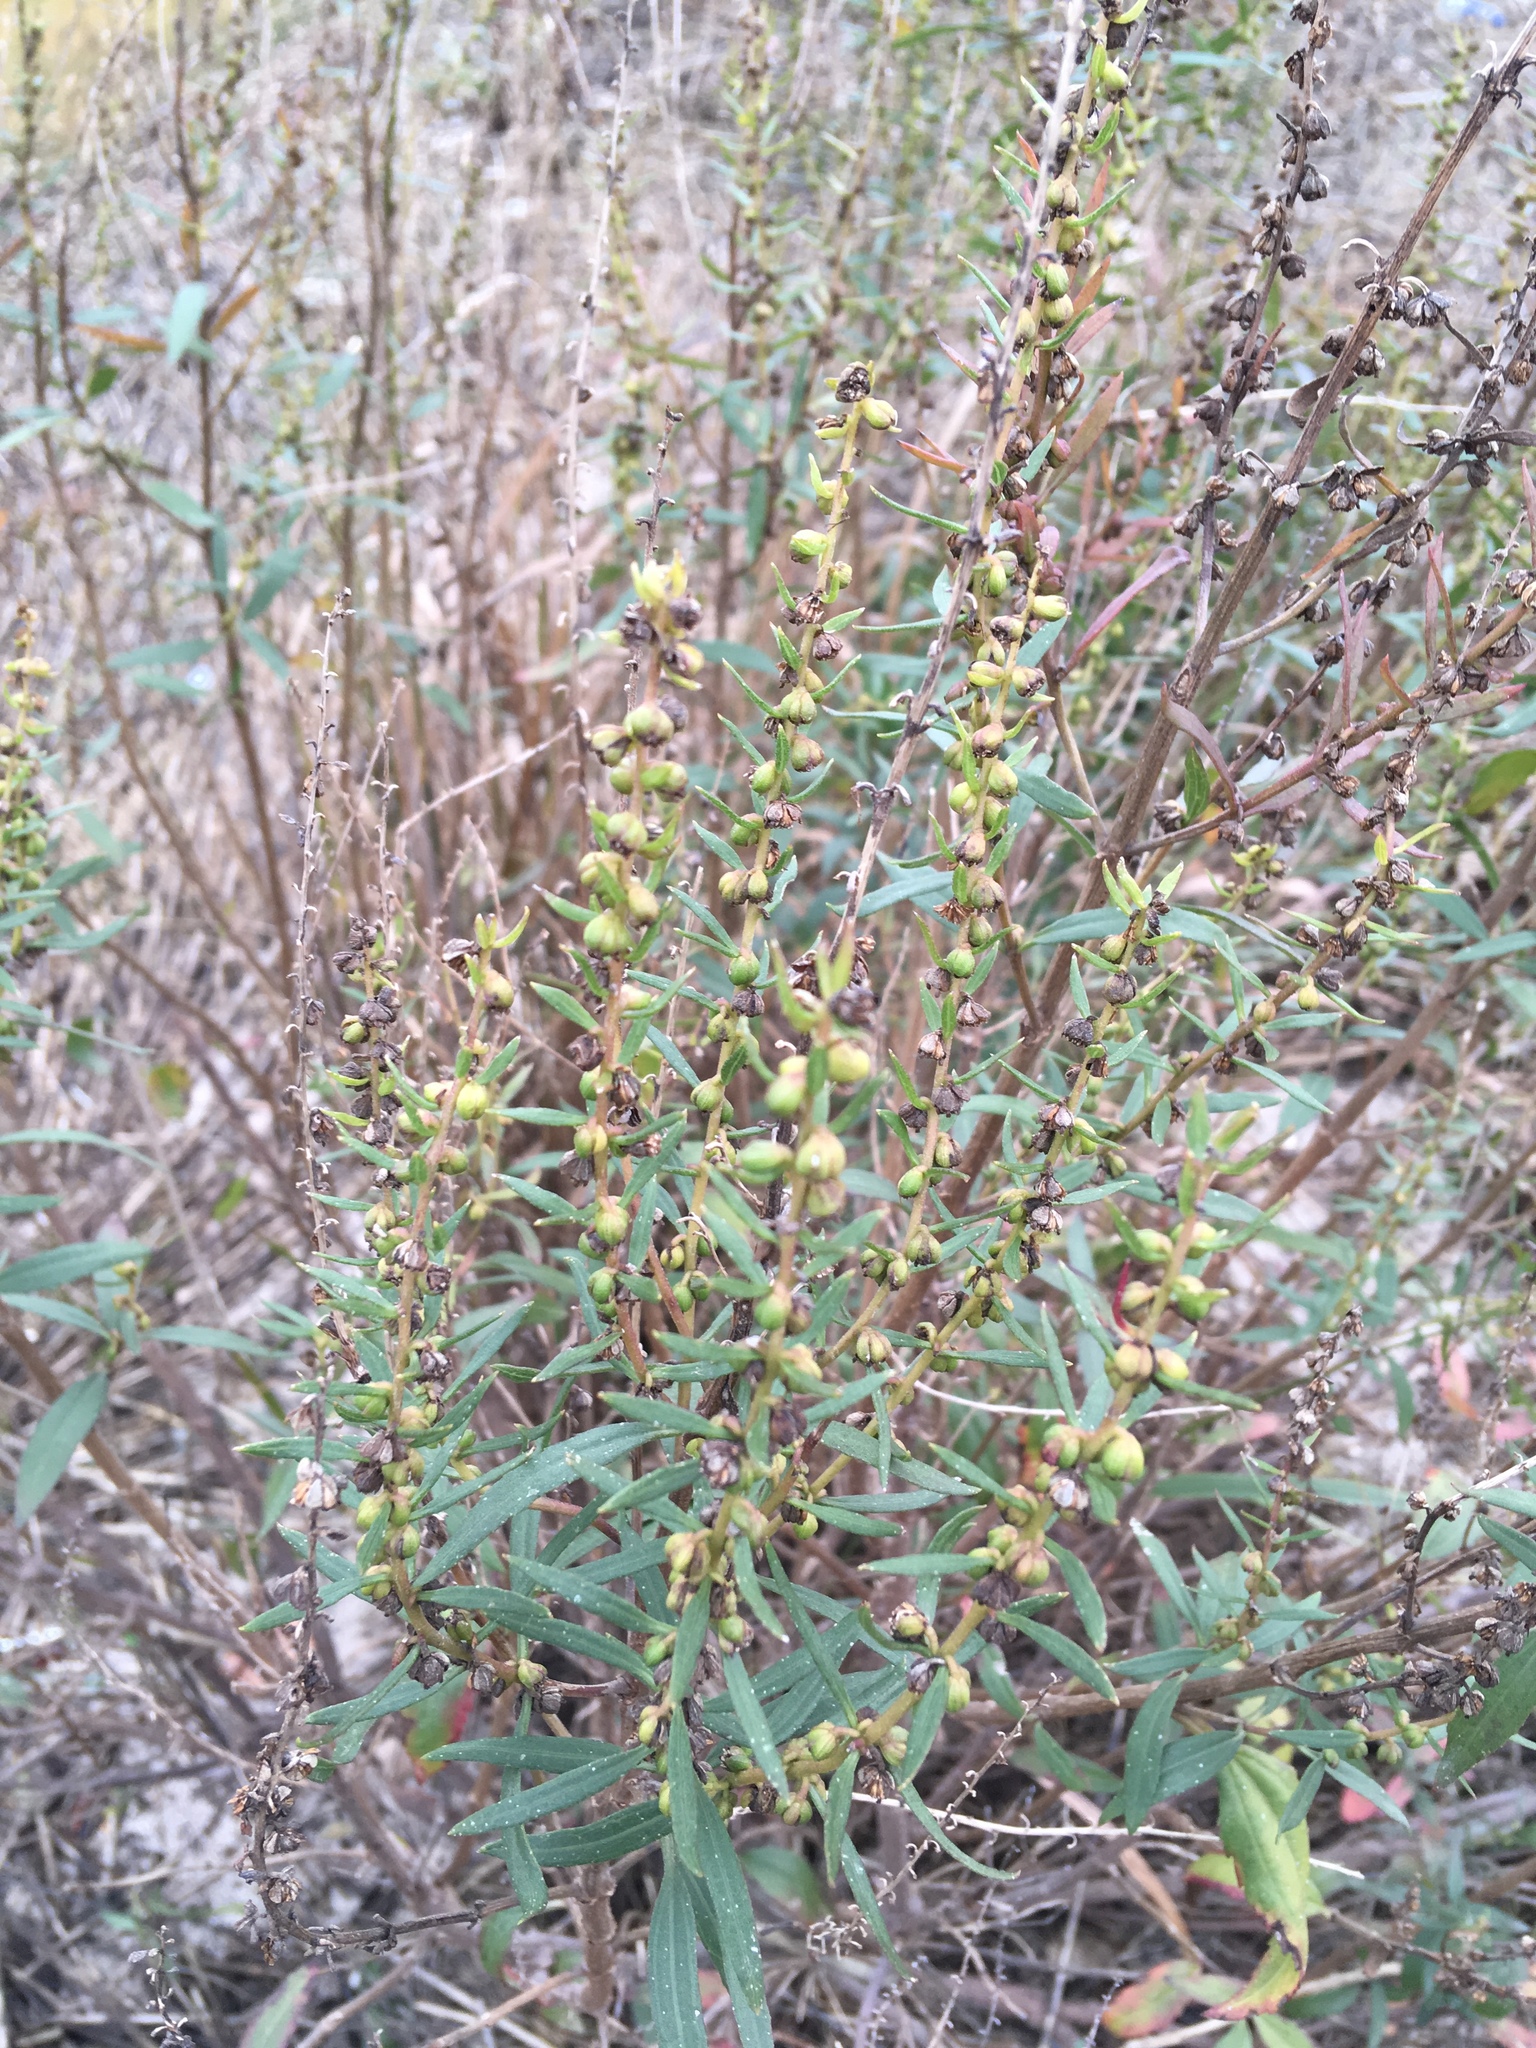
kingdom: Plantae
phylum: Tracheophyta
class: Magnoliopsida
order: Asterales
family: Asteraceae
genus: Iva
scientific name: Iva frutescens
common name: Big-leaved marsh-elder
